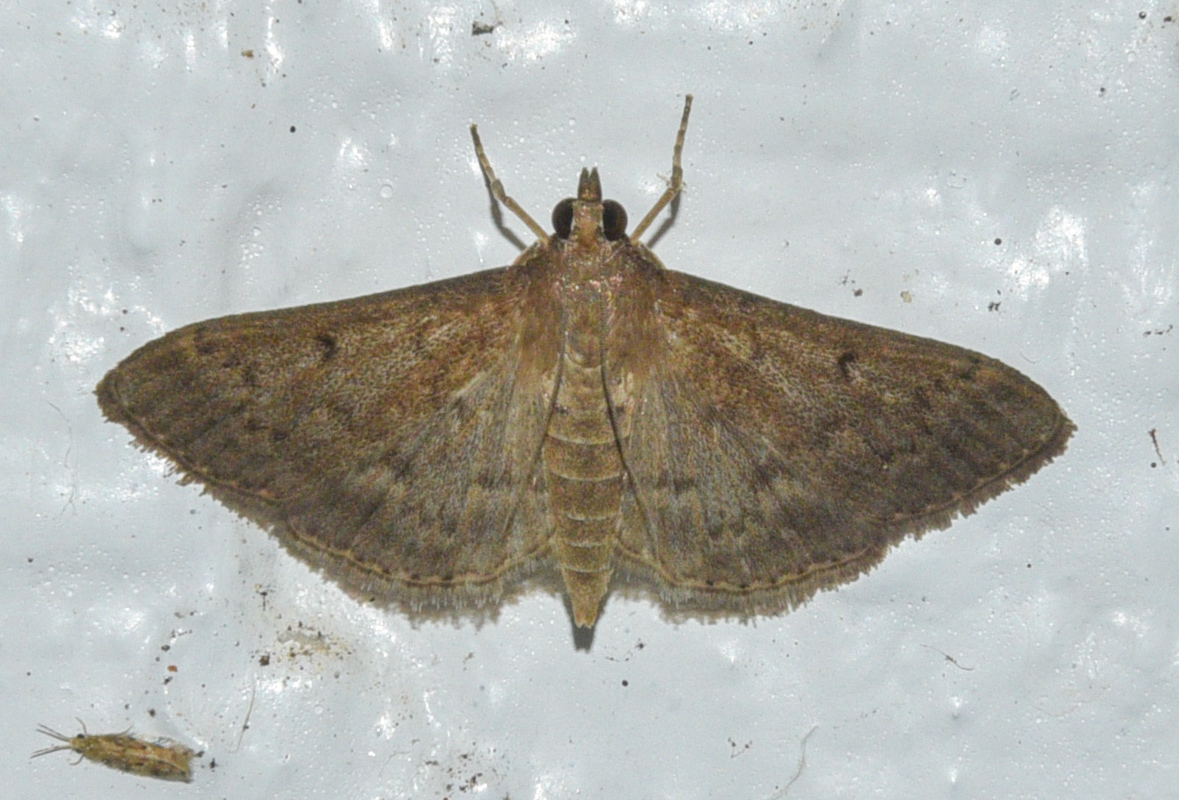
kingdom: Animalia
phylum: Arthropoda
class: Insecta
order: Lepidoptera
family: Crambidae
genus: Herpetogramma
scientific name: Herpetogramma licarsisalis
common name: Grass webworm
